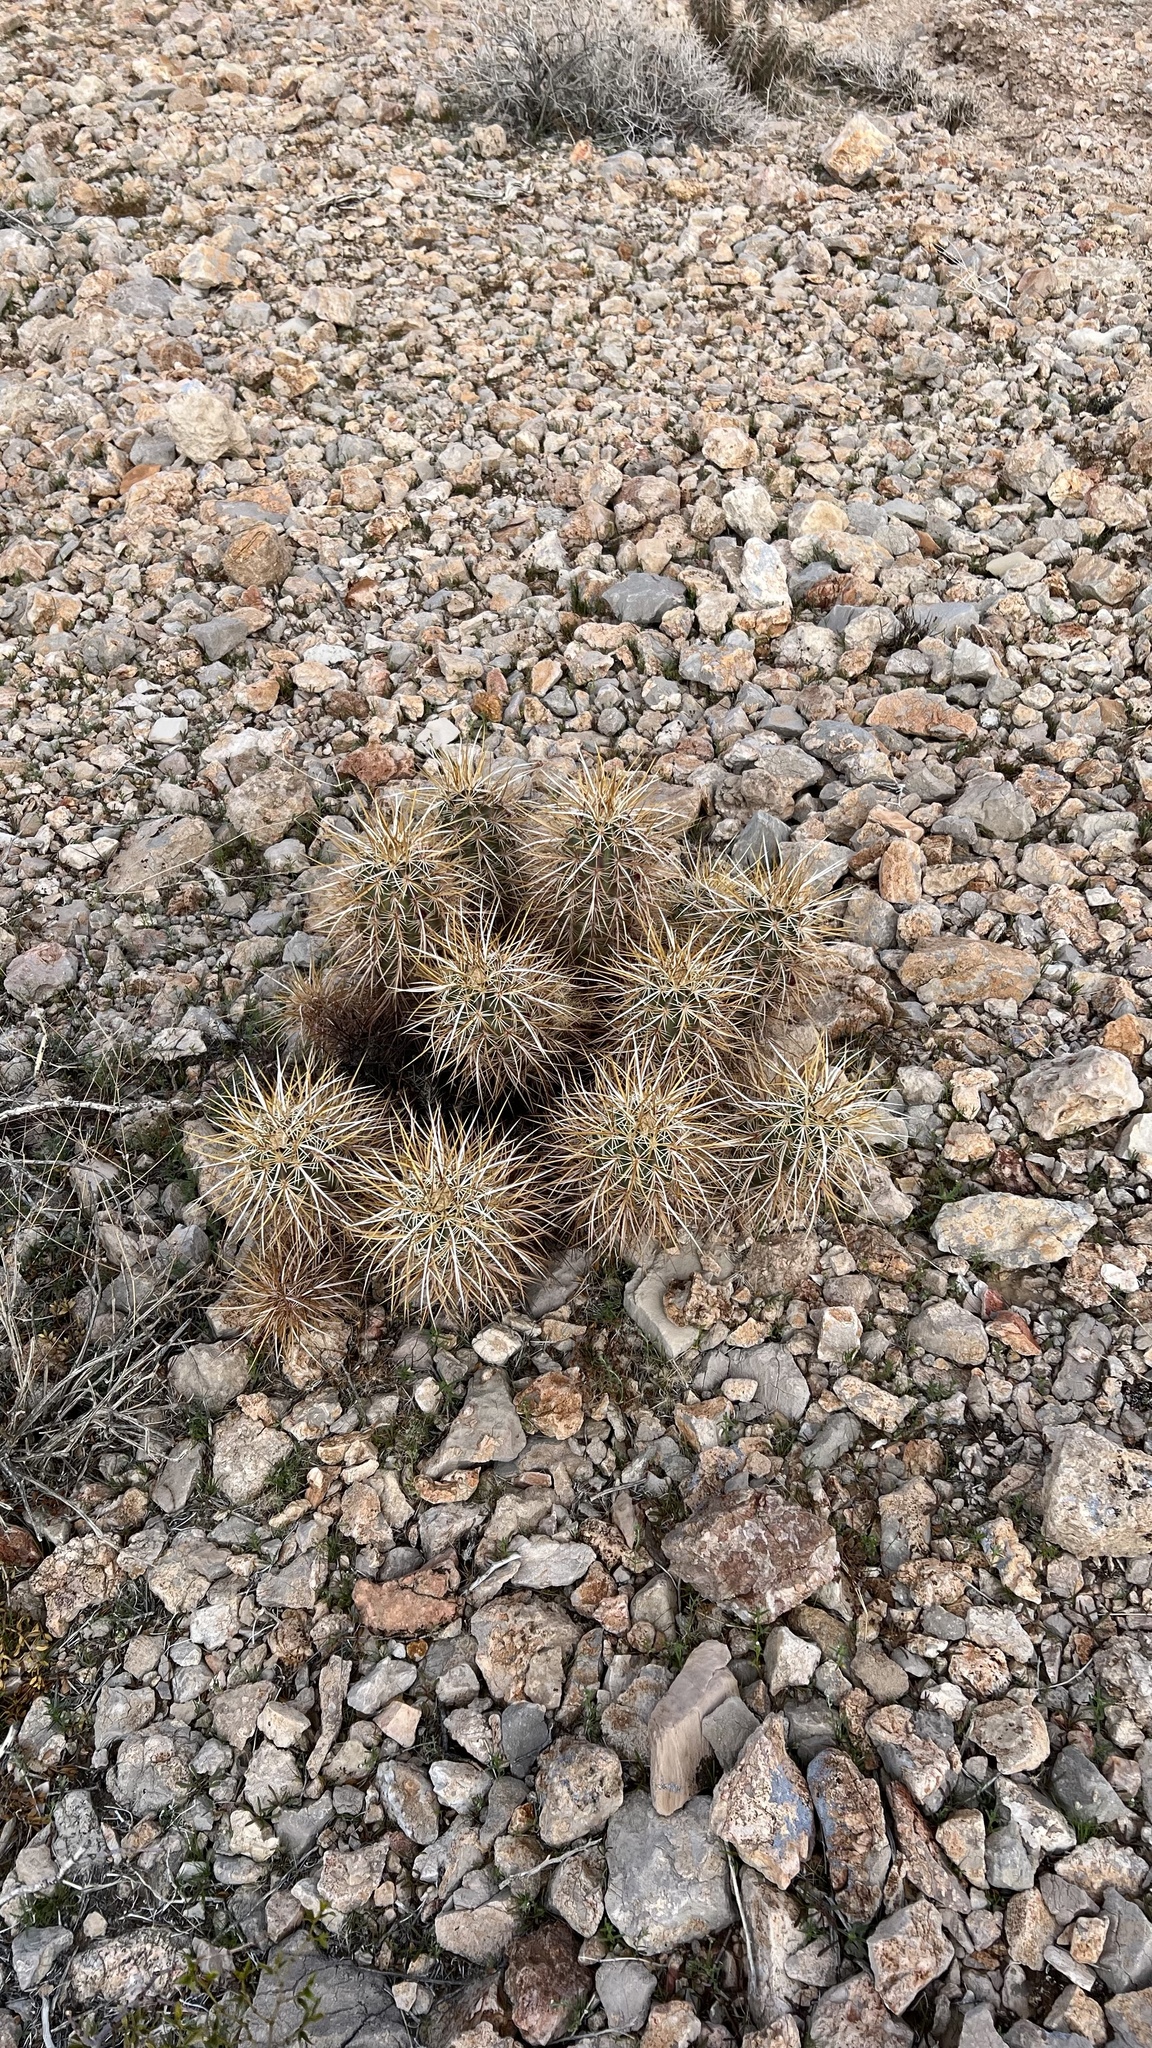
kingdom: Plantae
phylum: Tracheophyta
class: Magnoliopsida
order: Caryophyllales
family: Cactaceae
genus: Echinocereus
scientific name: Echinocereus engelmannii
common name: Engelmann's hedgehog cactus
